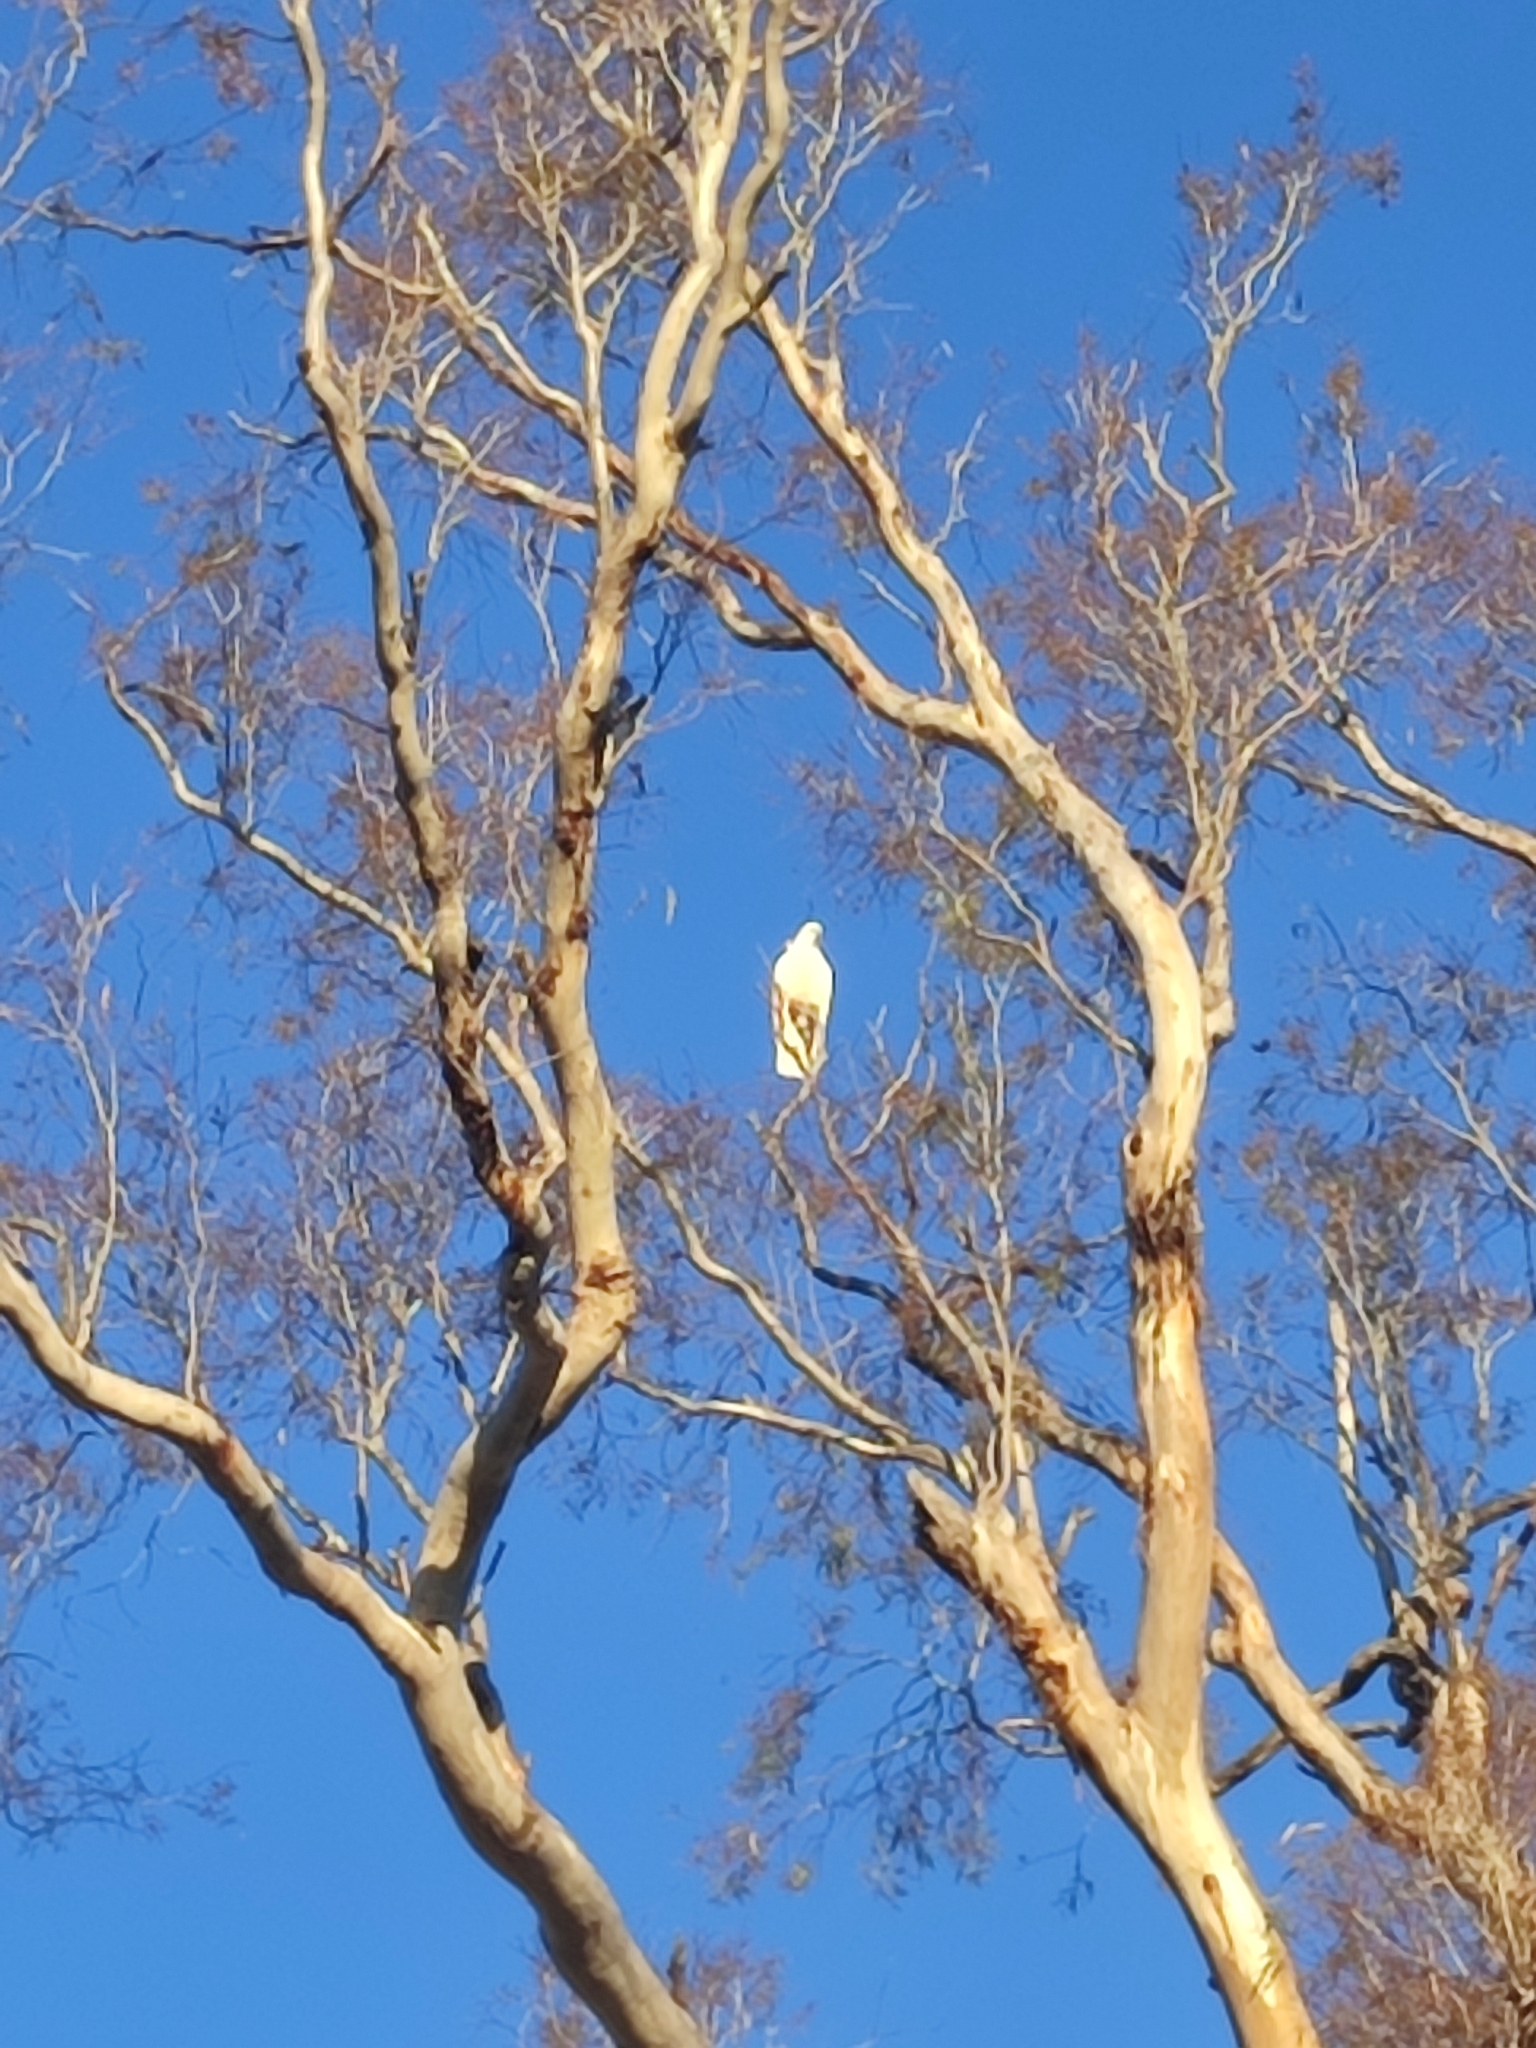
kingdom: Animalia
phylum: Chordata
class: Aves
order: Psittaciformes
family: Psittacidae
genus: Cacatua
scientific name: Cacatua galerita
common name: Sulphur-crested cockatoo
